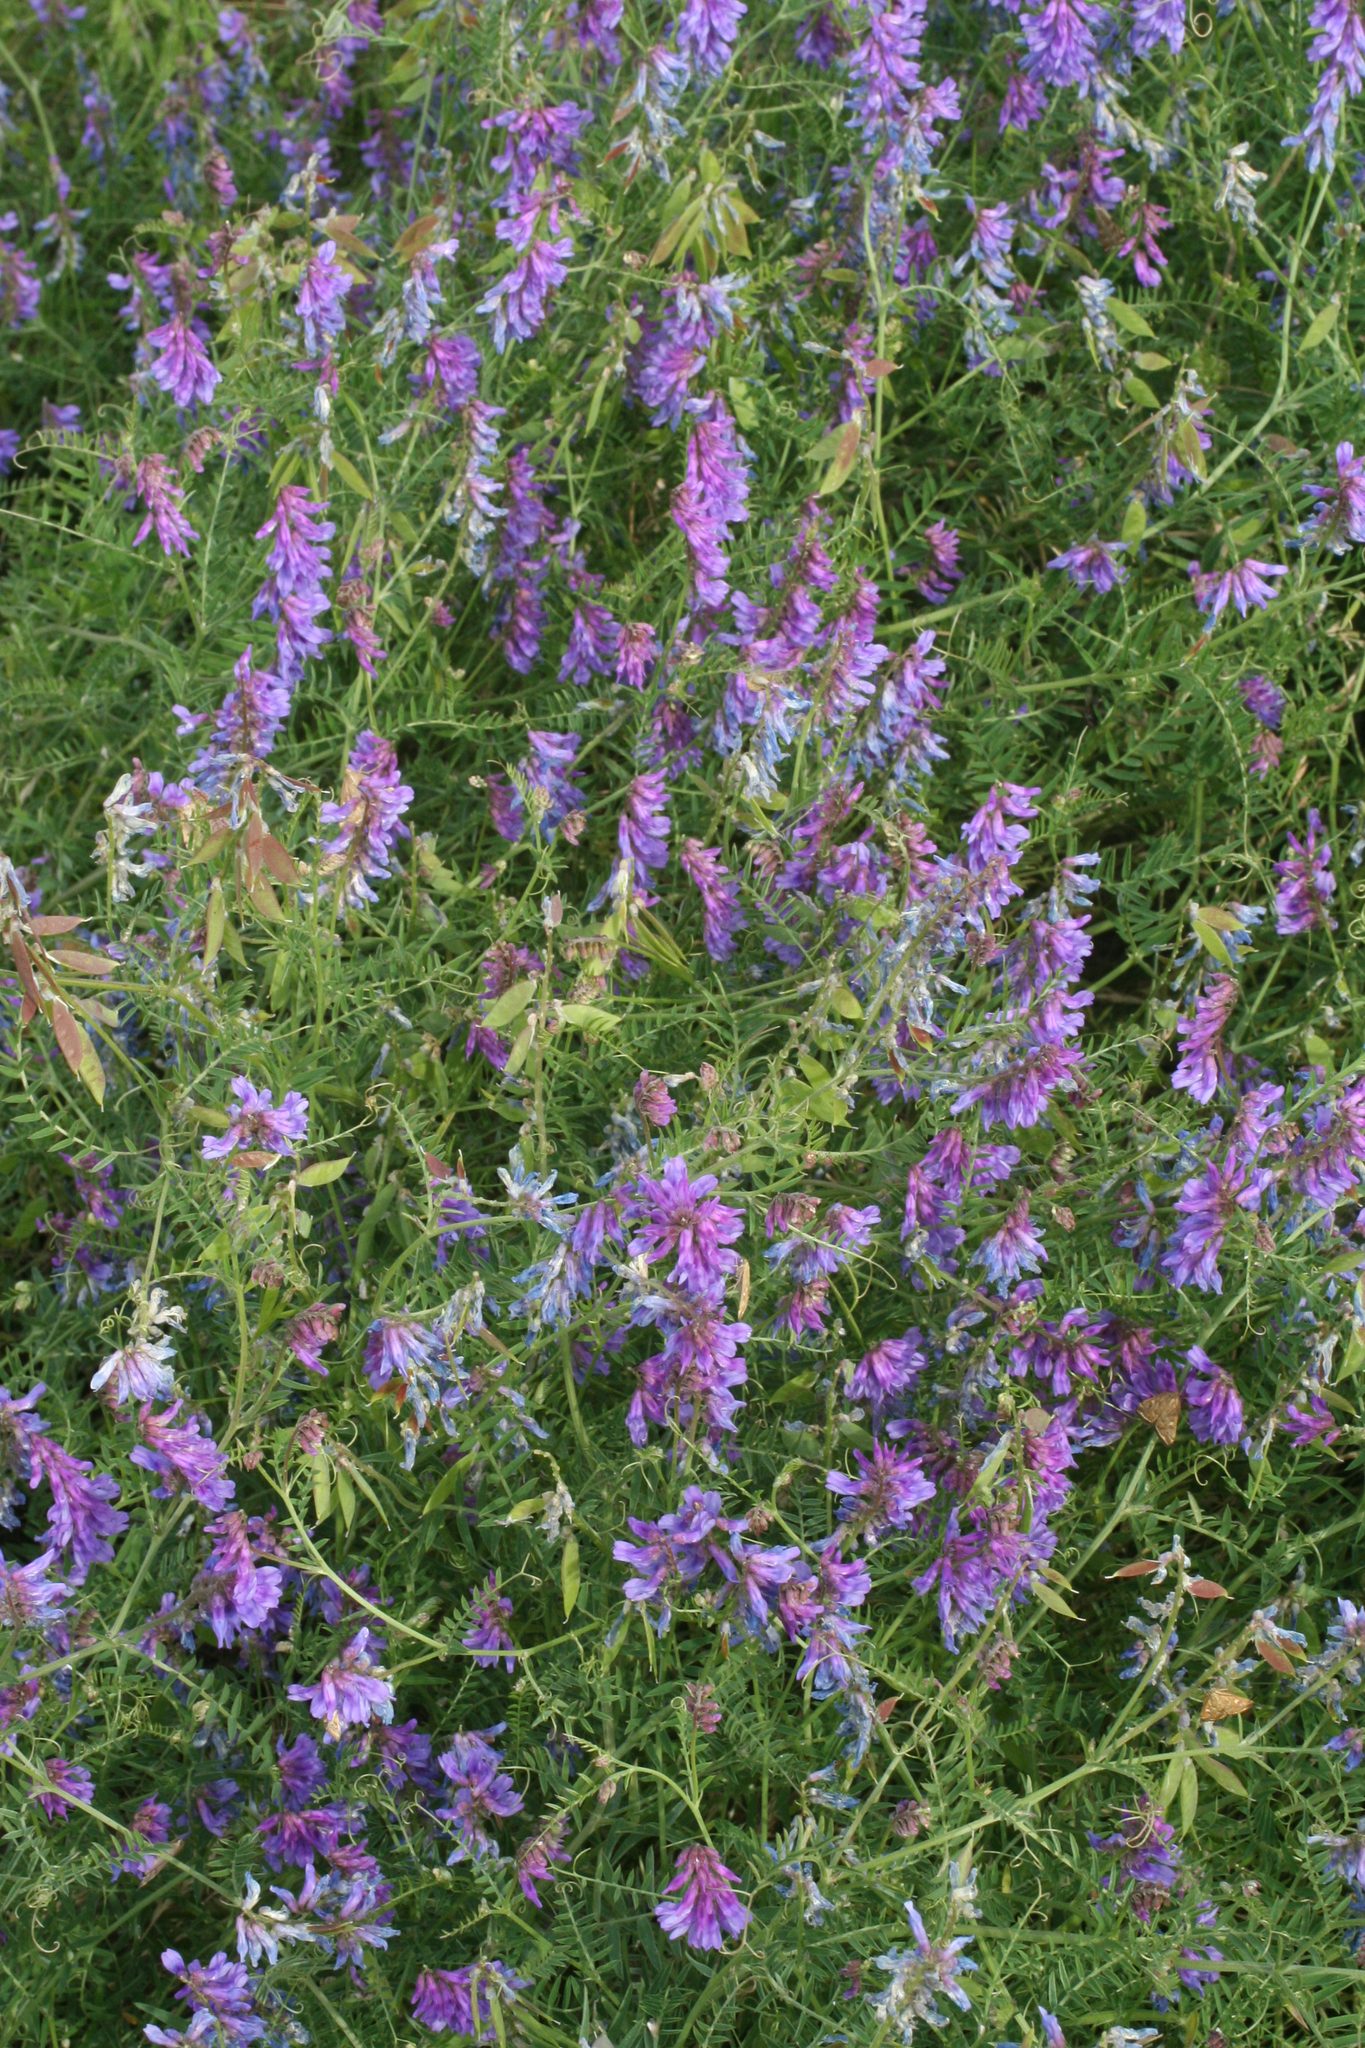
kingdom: Plantae
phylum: Tracheophyta
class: Magnoliopsida
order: Fabales
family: Fabaceae
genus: Vicia
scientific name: Vicia cracca
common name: Bird vetch
